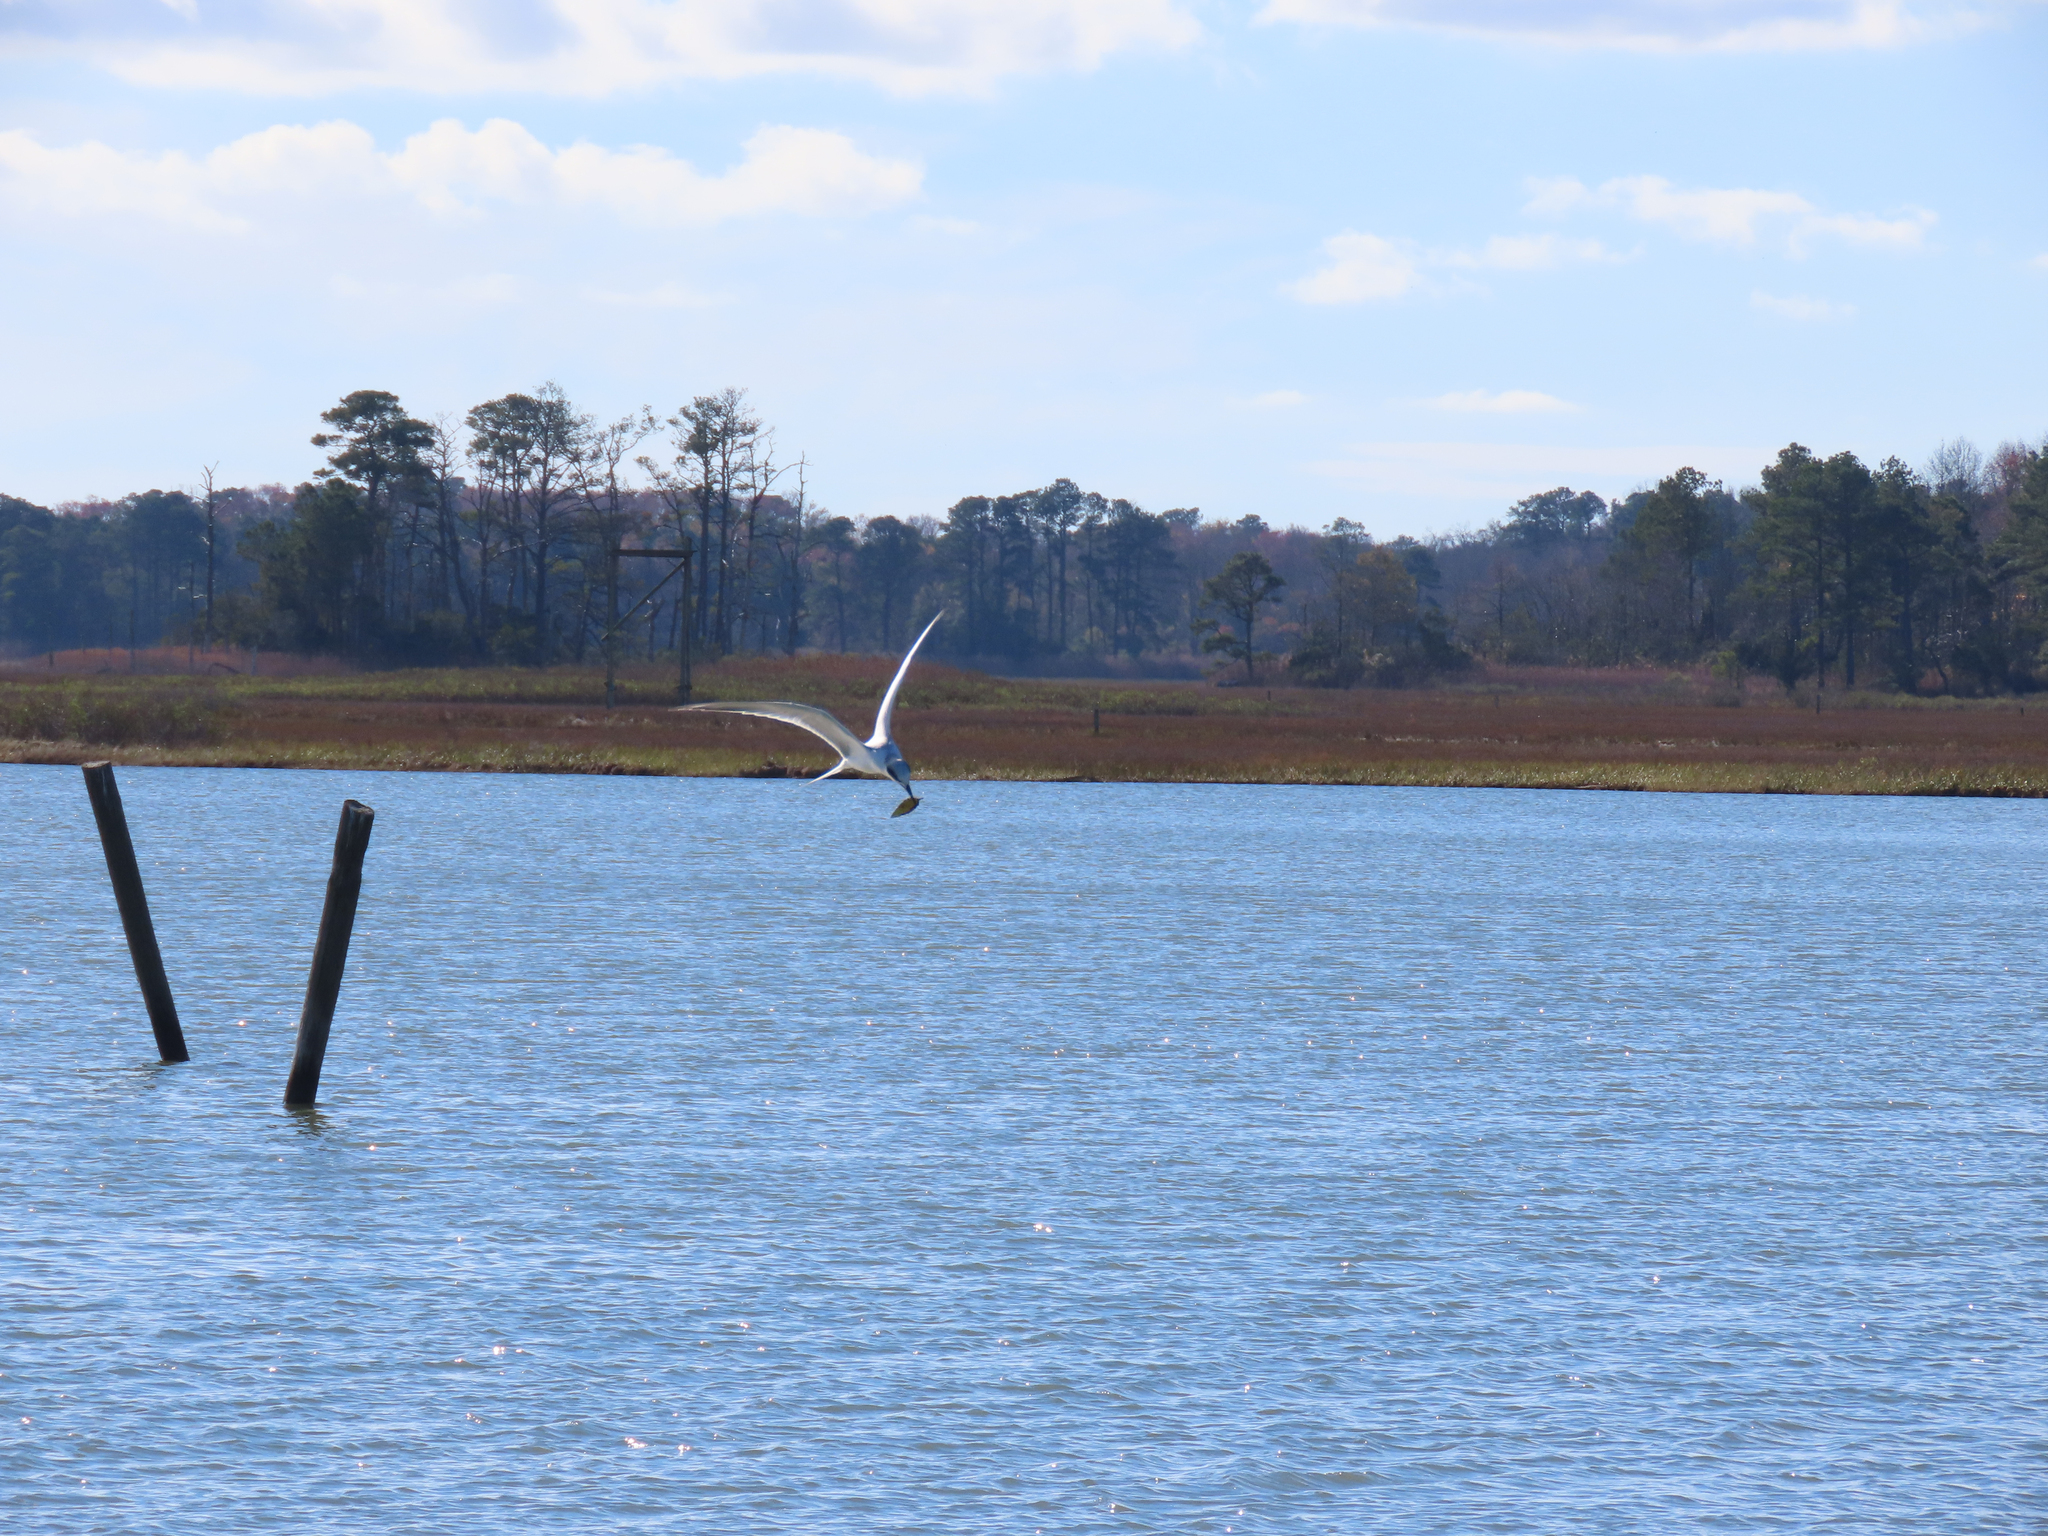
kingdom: Animalia
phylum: Chordata
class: Aves
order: Charadriiformes
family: Laridae
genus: Sterna
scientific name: Sterna forsteri
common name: Forster's tern
